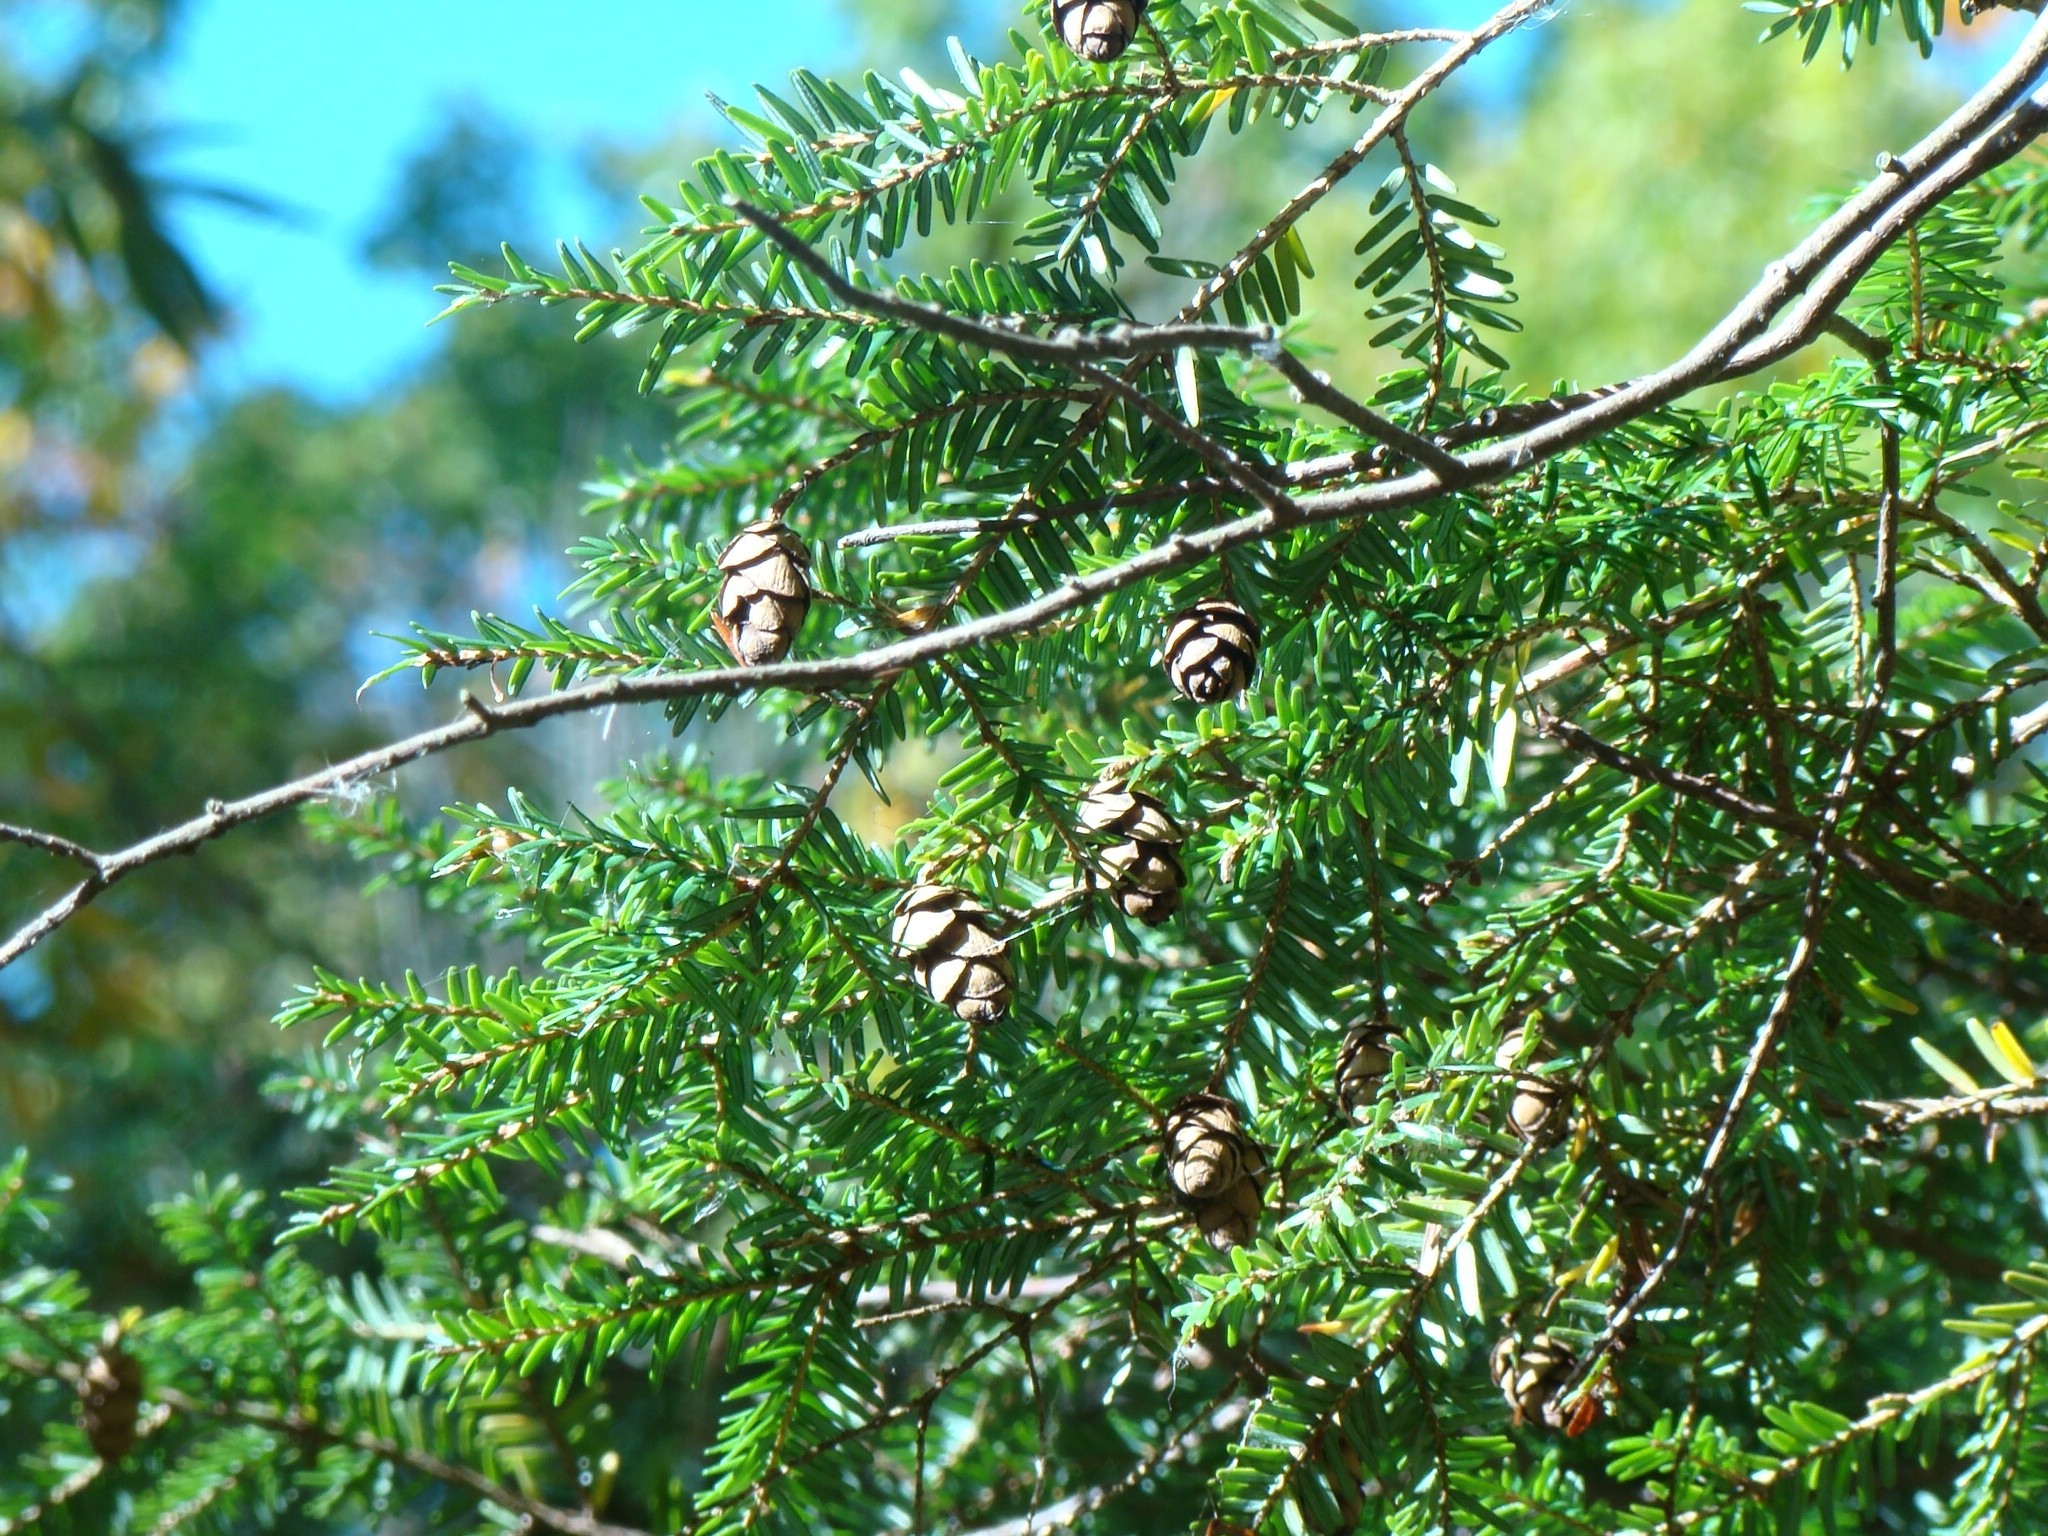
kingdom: Plantae
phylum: Tracheophyta
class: Pinopsida
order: Pinales
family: Pinaceae
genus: Tsuga
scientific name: Tsuga canadensis
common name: Eastern hemlock
